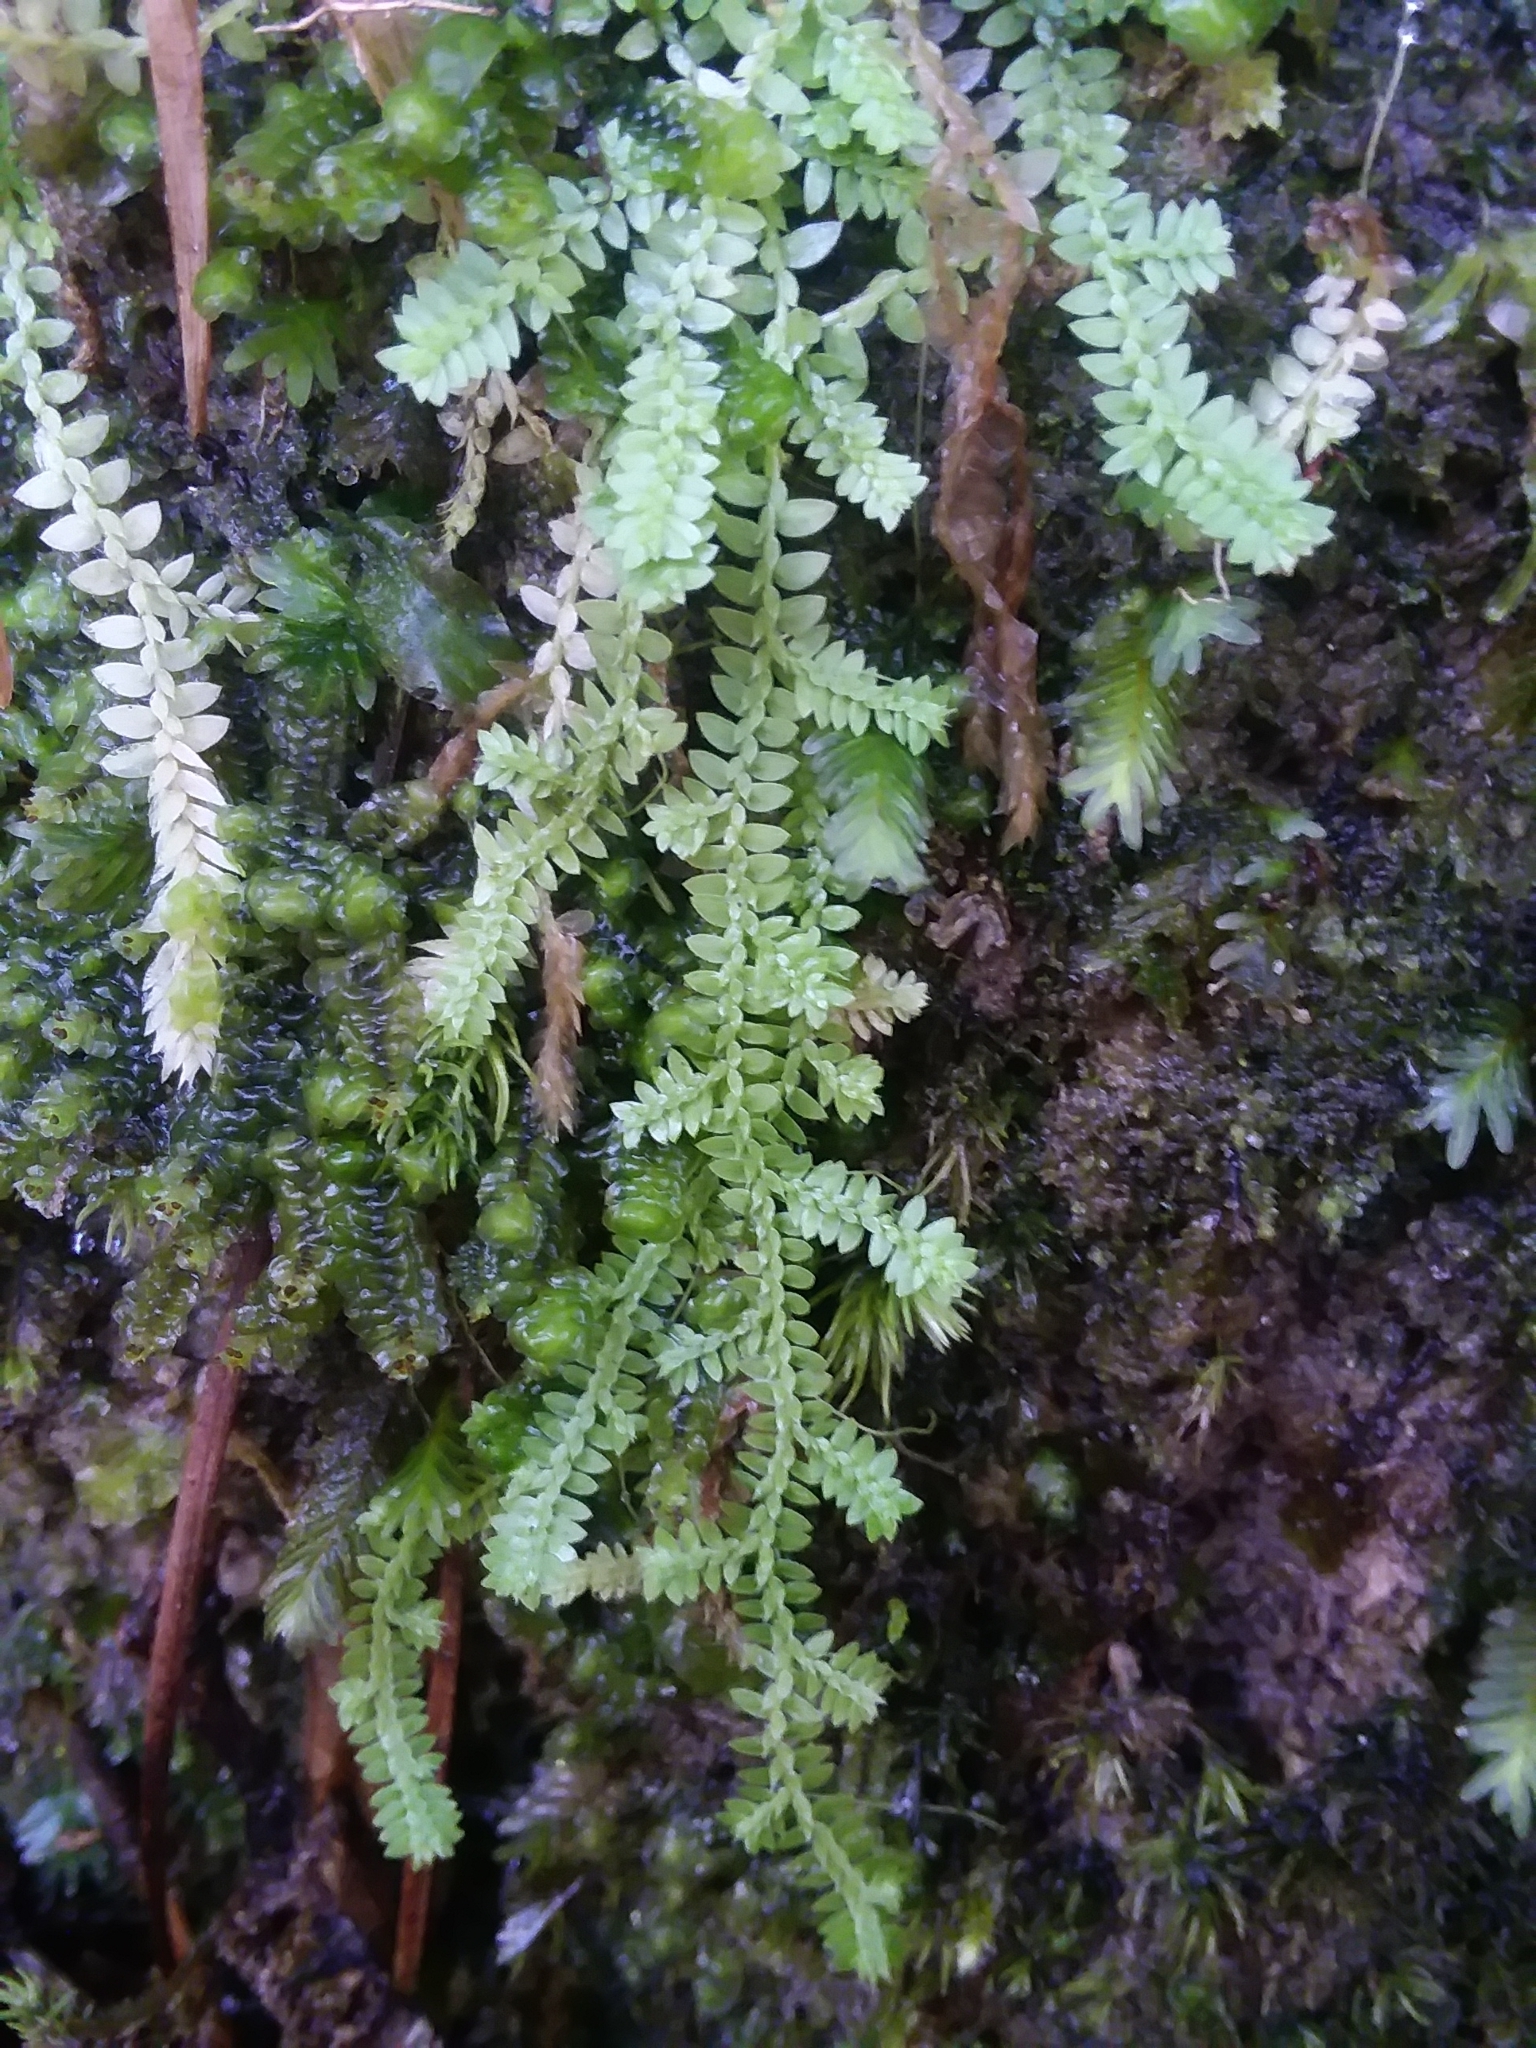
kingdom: Plantae
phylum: Tracheophyta
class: Lycopodiopsida
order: Selaginellales
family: Selaginellaceae
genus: Selaginella
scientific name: Selaginella apoda
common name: Creeping spikemoss
